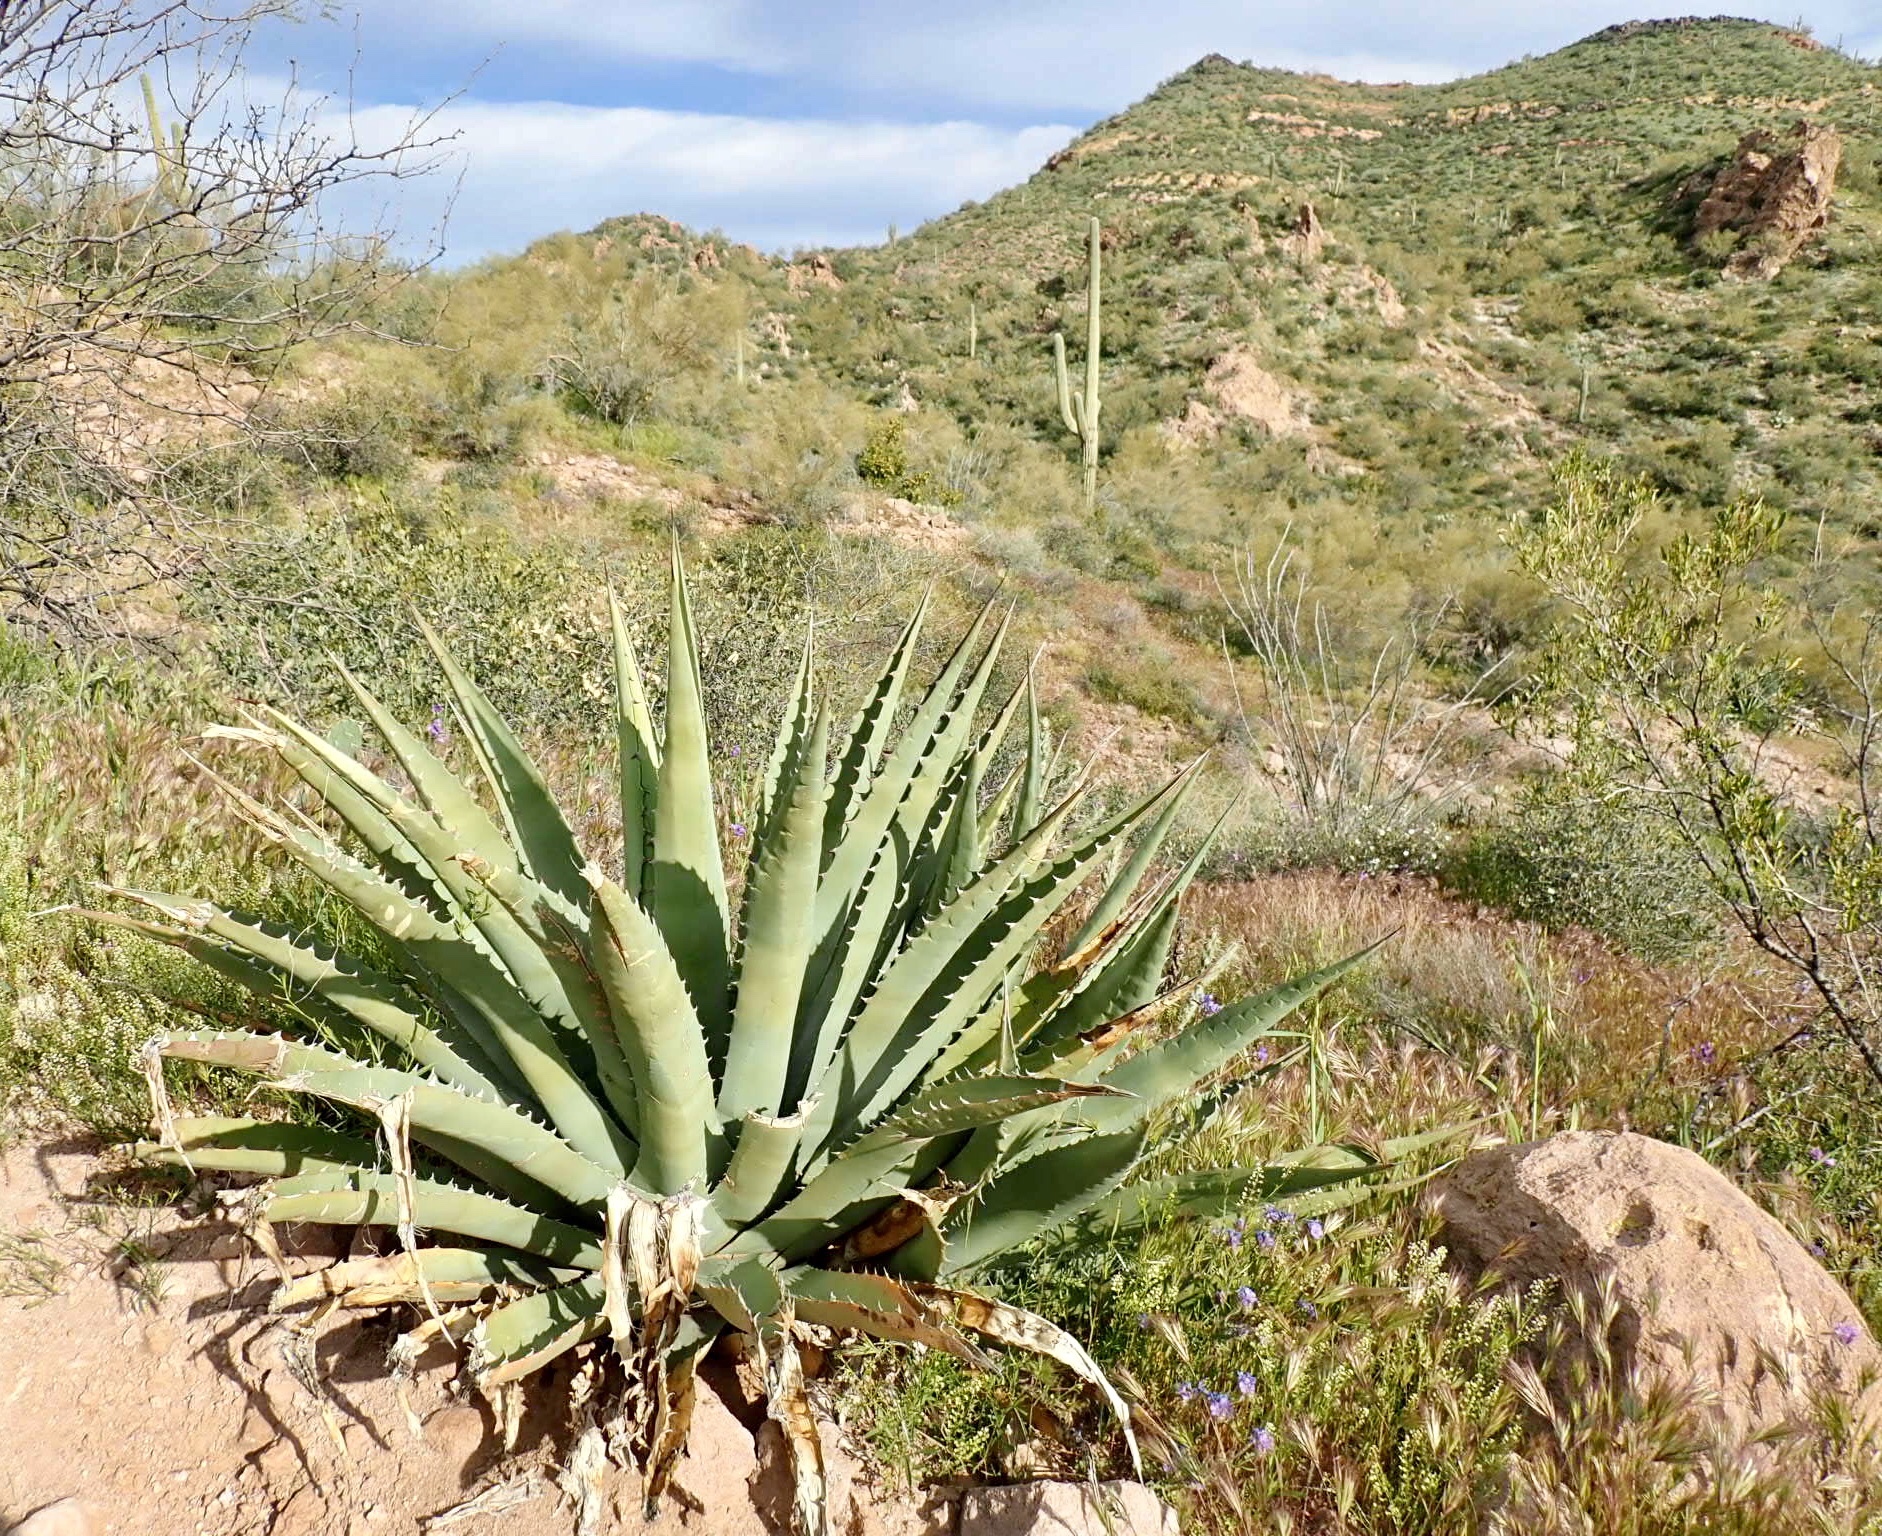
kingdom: Plantae
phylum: Tracheophyta
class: Liliopsida
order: Asparagales
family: Asparagaceae
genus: Agave
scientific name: Agave chrysantha
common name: Golden-flowered agave
